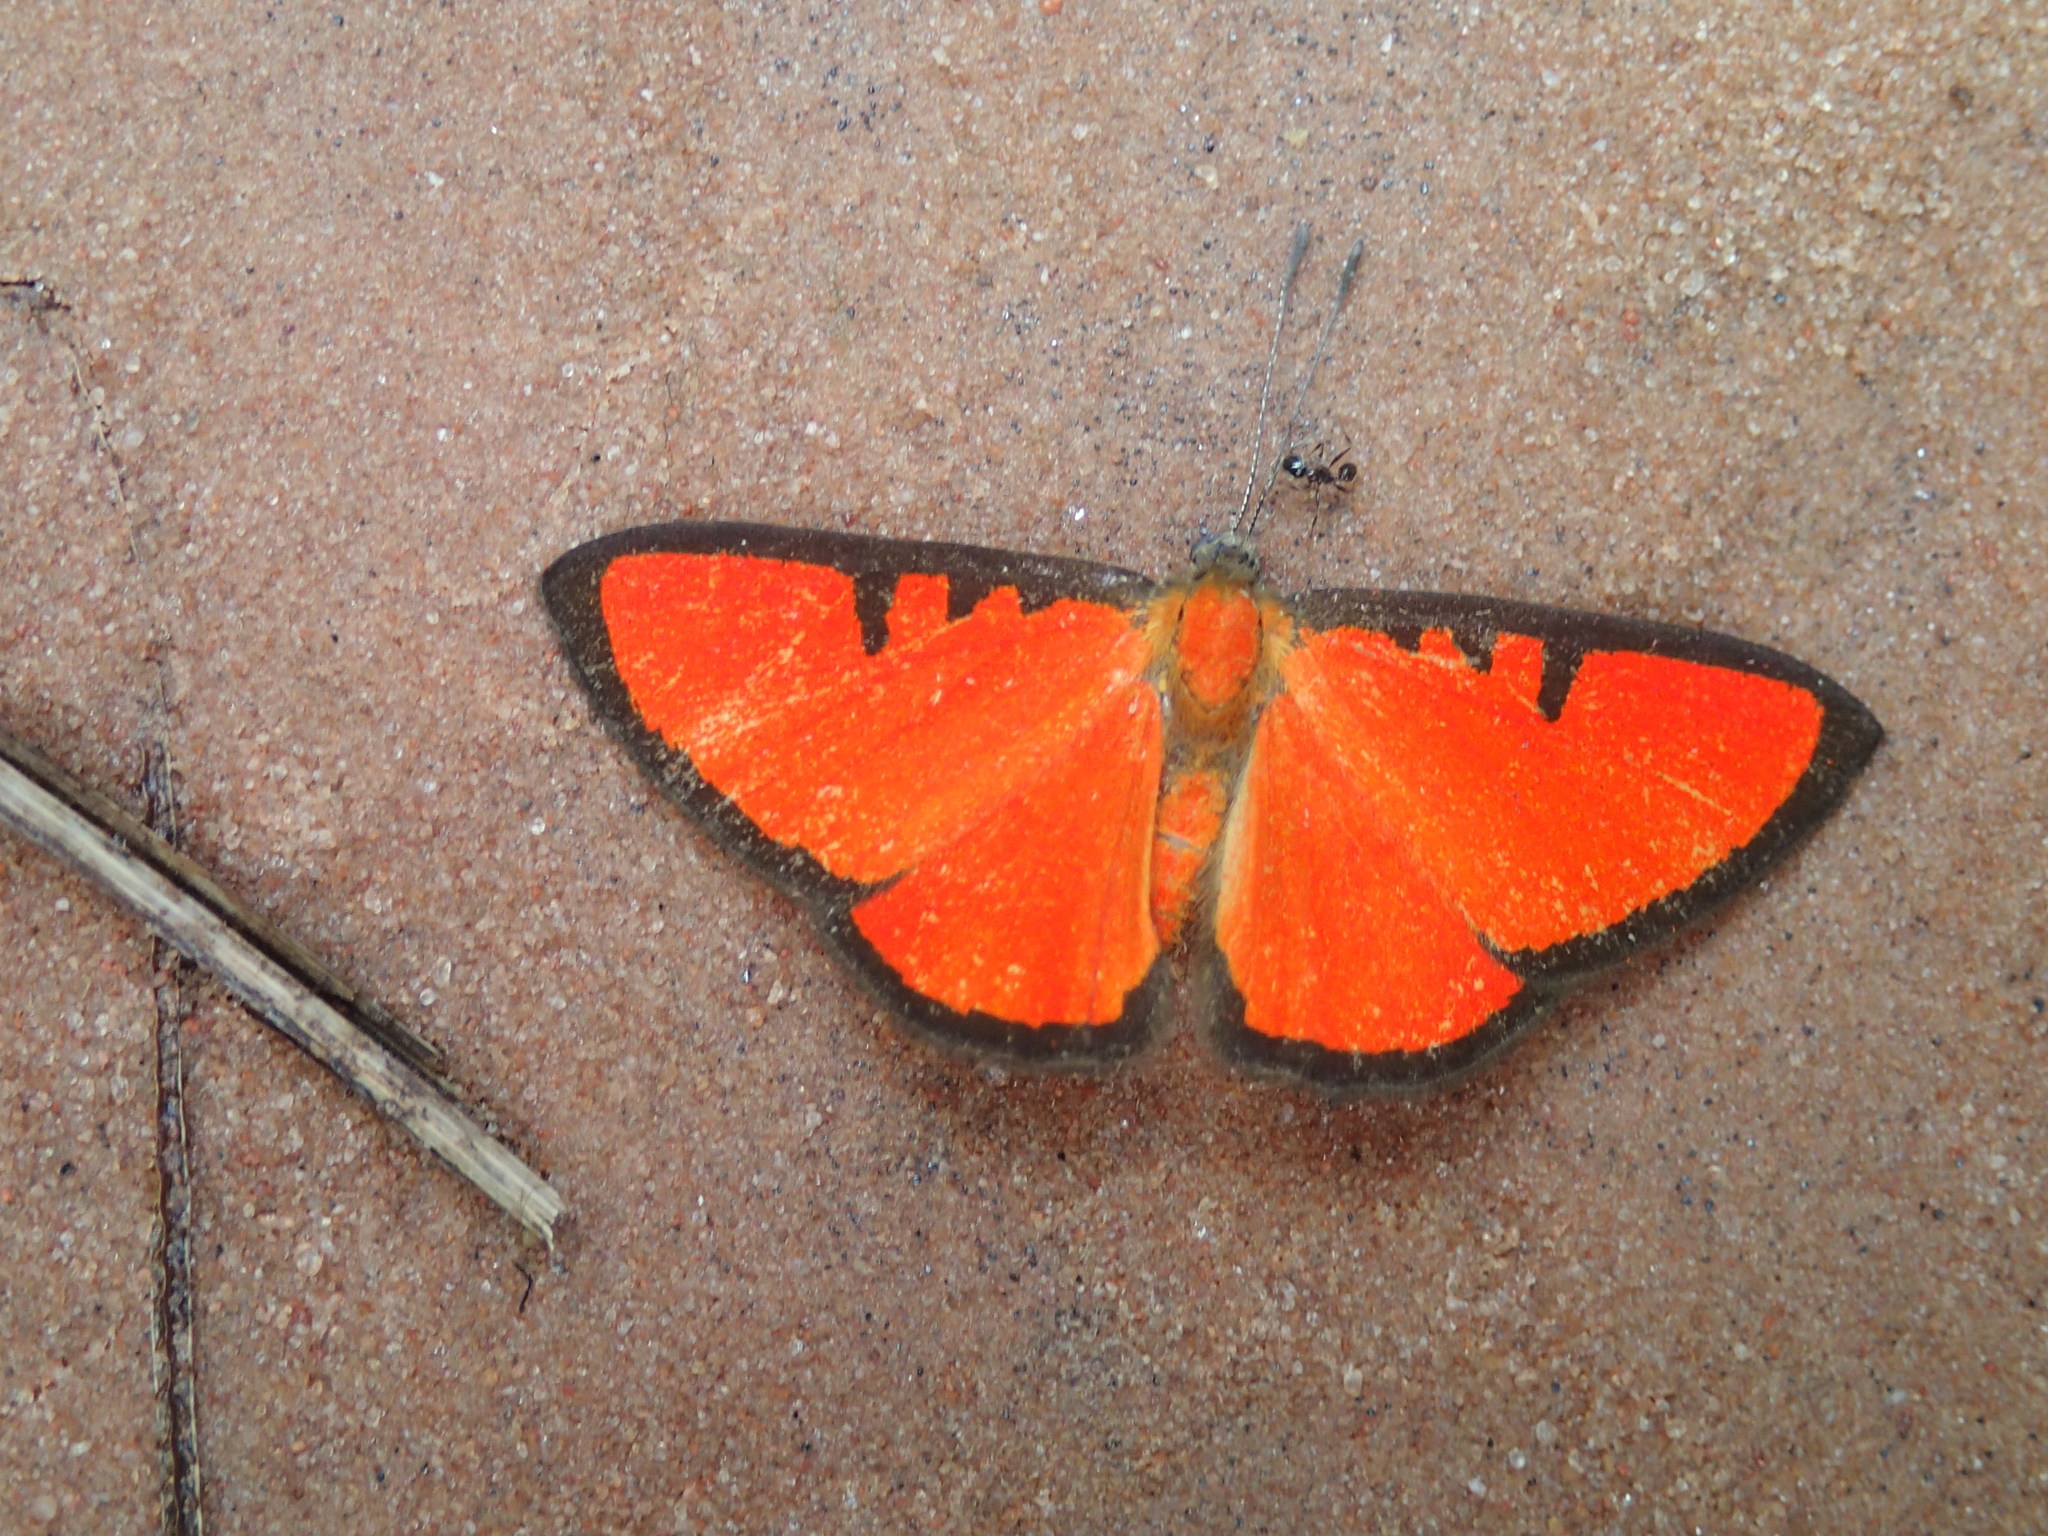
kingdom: Animalia
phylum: Arthropoda
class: Insecta
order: Lepidoptera
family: Lycaenidae
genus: Mesene
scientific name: Mesene phareus
